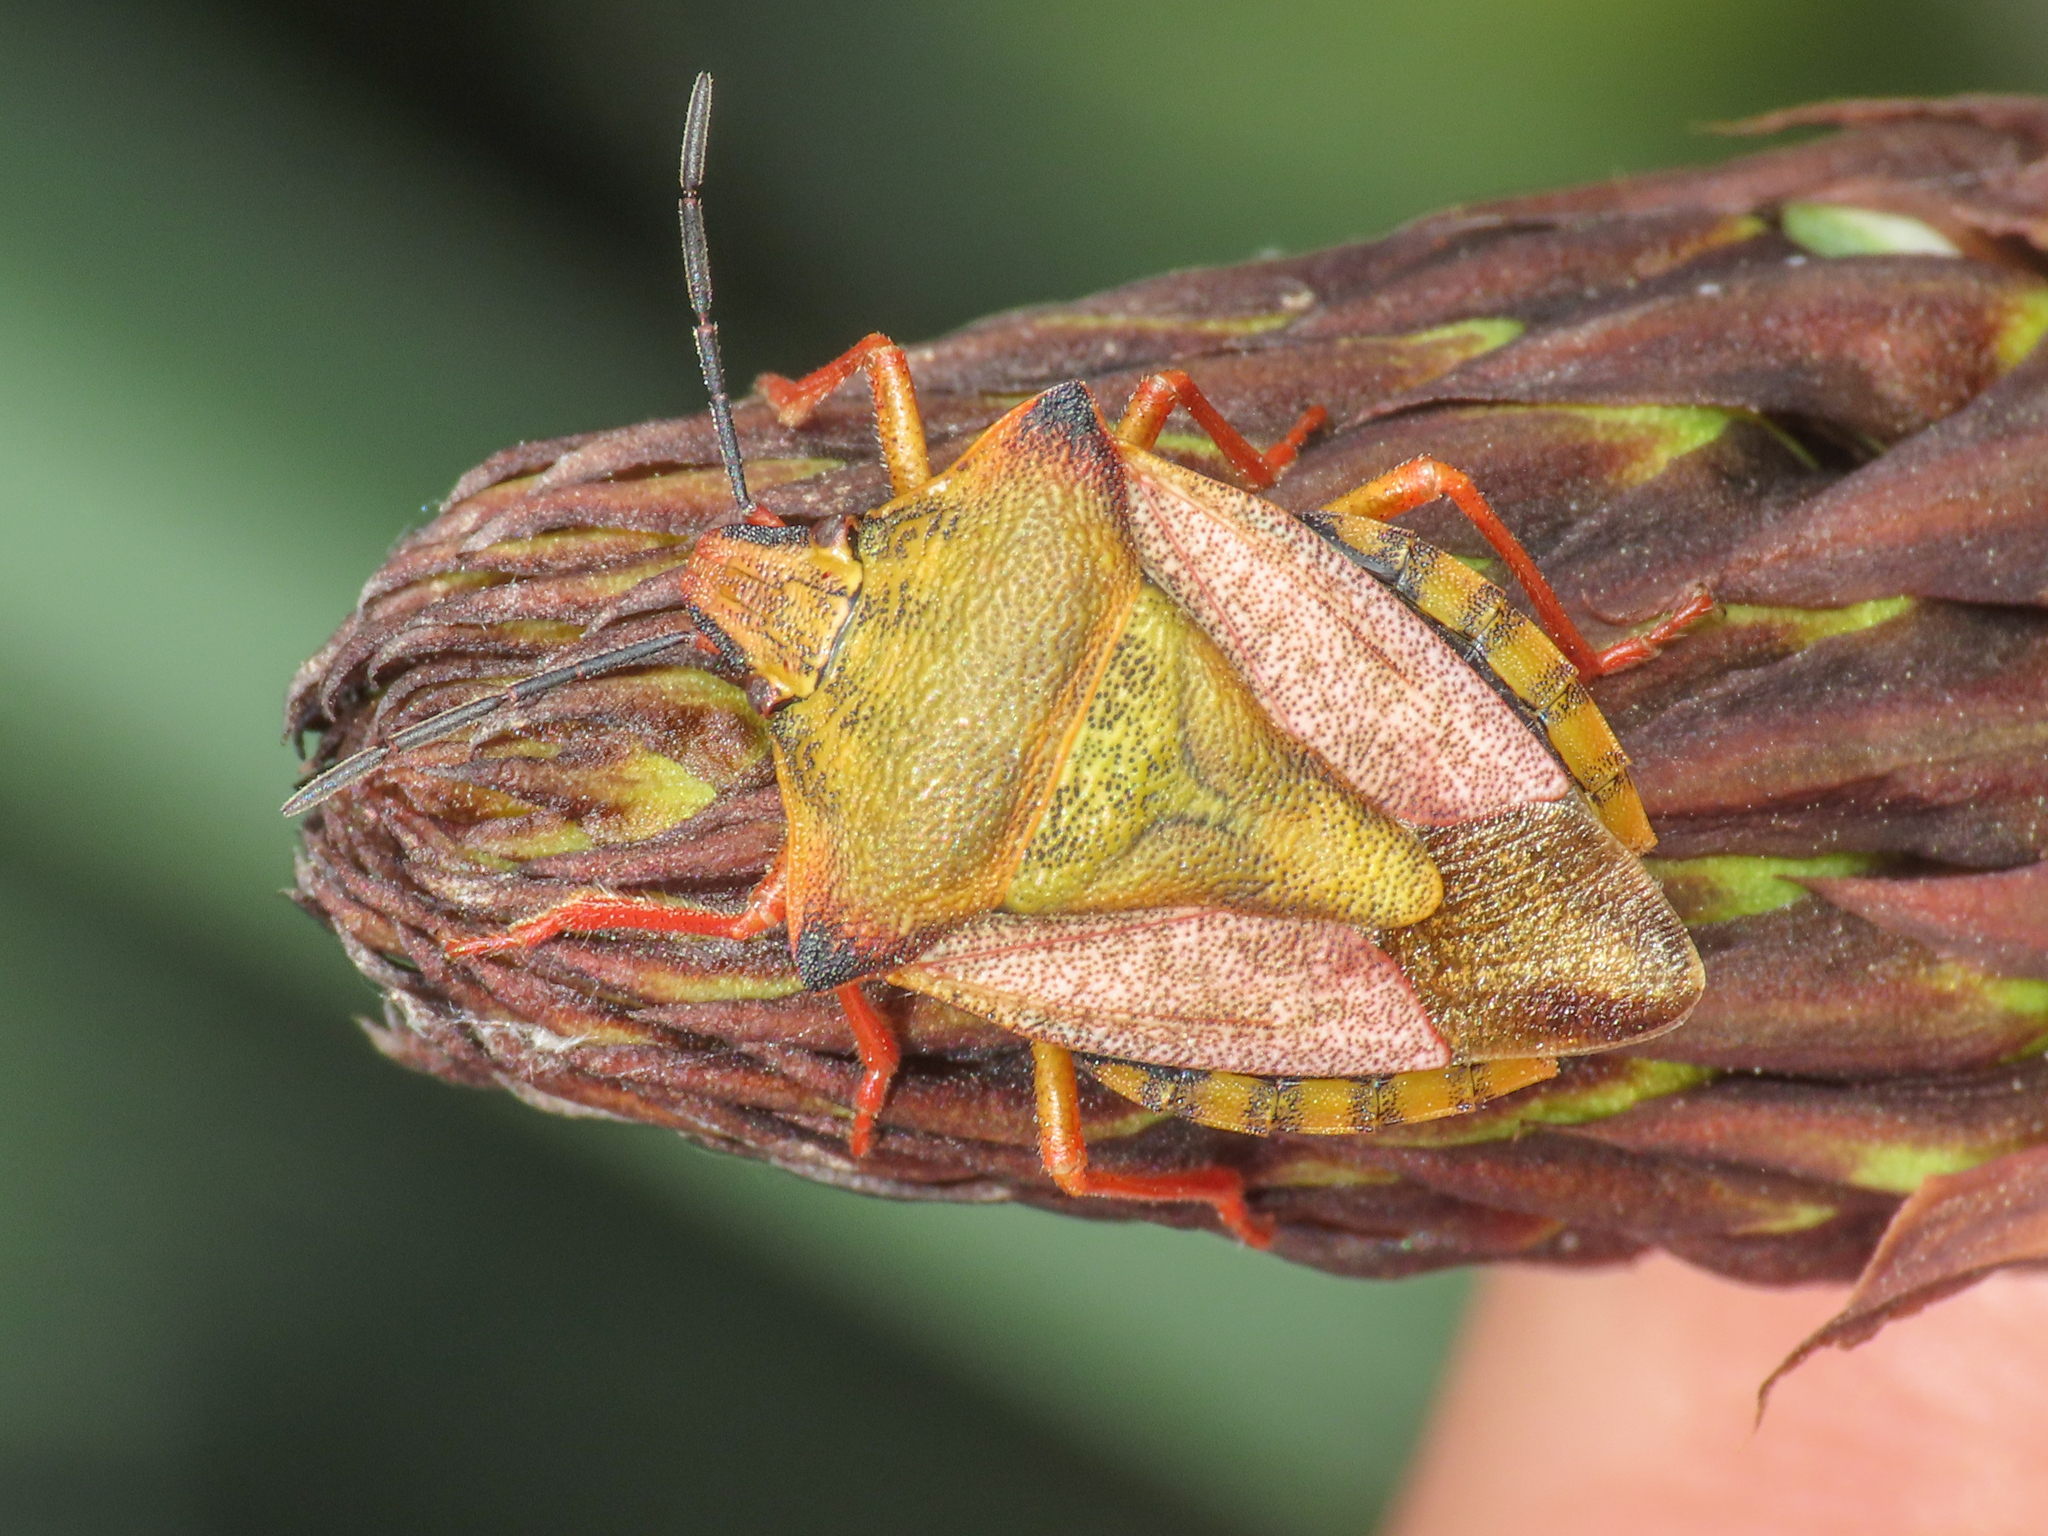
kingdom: Animalia
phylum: Arthropoda
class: Insecta
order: Hemiptera
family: Pentatomidae
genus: Carpocoris
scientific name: Carpocoris mediterraneus
